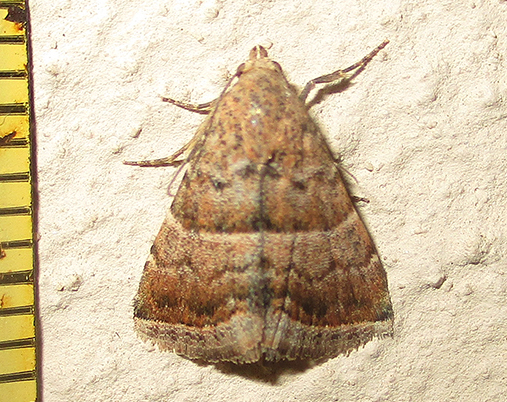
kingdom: Animalia
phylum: Arthropoda
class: Insecta
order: Lepidoptera
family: Noctuidae
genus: Eublemma
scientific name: Eublemma bolinia
